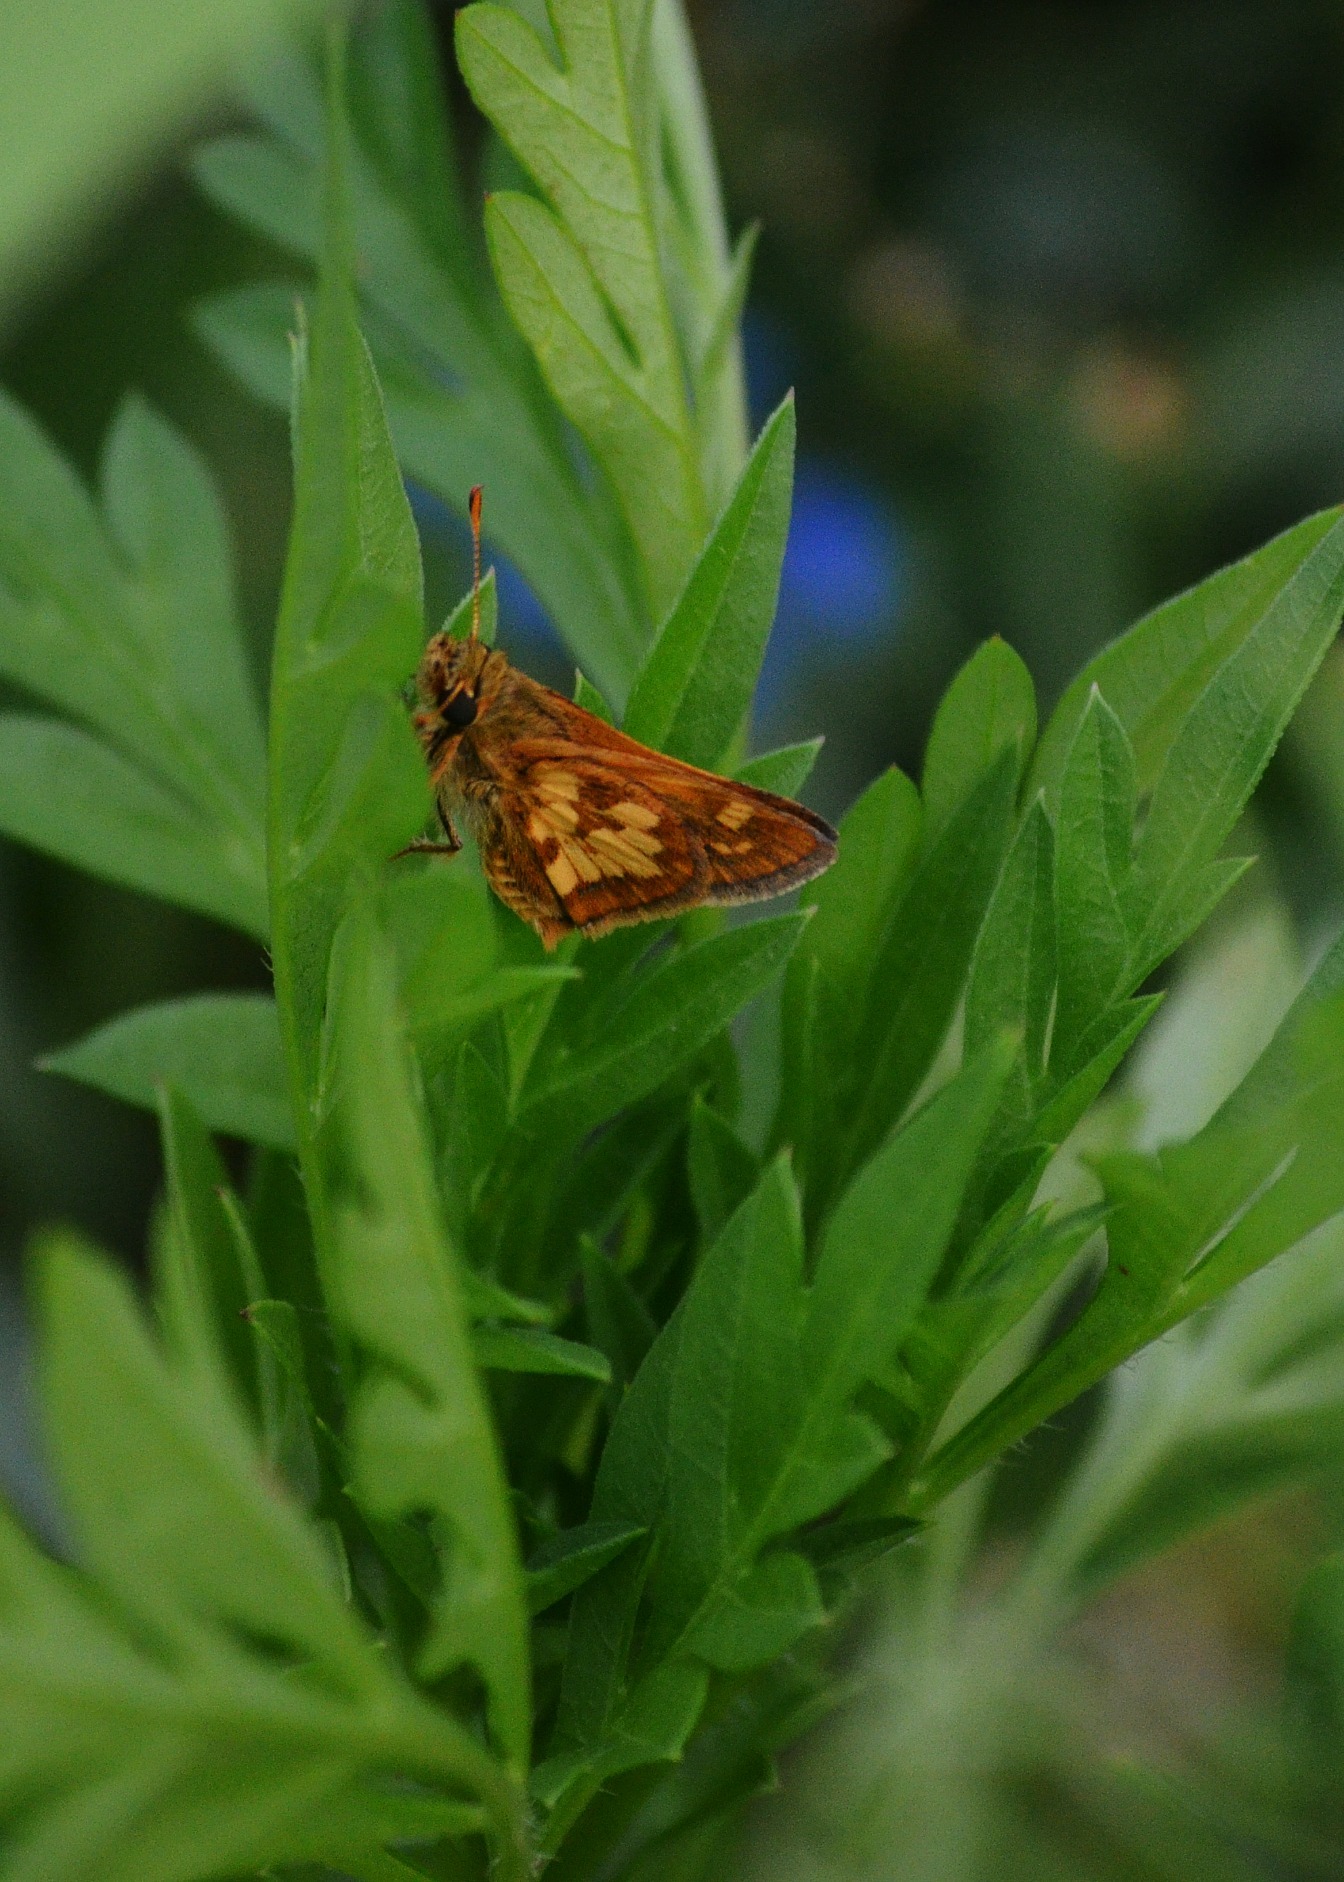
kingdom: Animalia
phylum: Arthropoda
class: Insecta
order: Lepidoptera
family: Hesperiidae
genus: Polites
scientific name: Polites coras
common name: Peck's skipper
